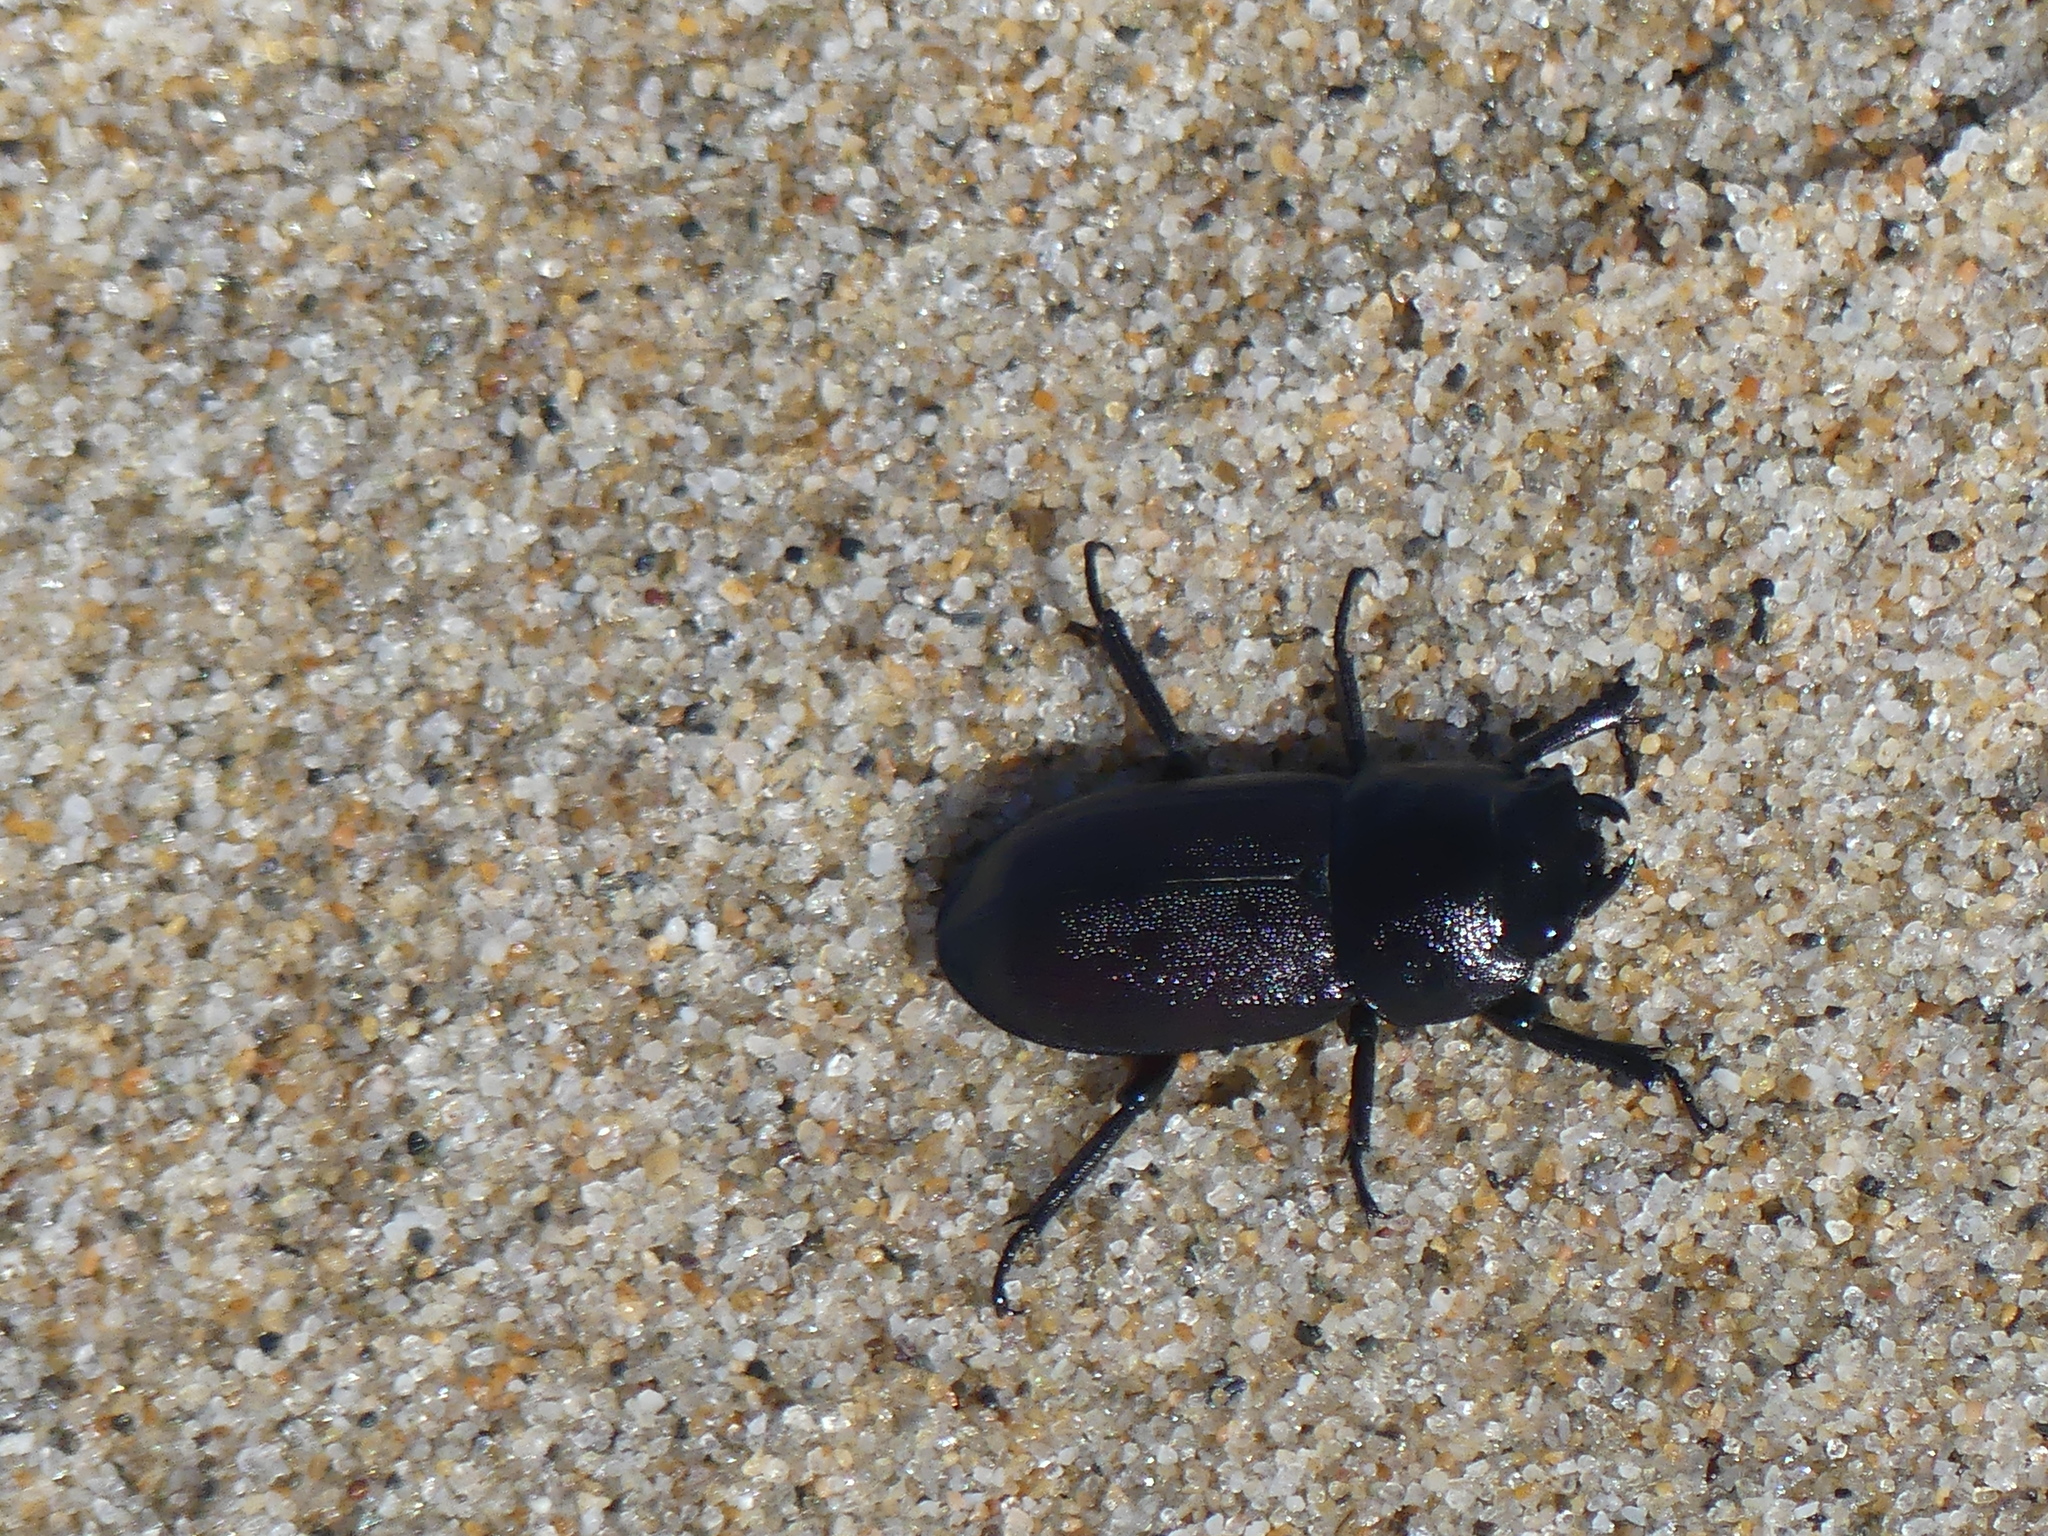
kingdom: Animalia
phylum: Arthropoda
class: Insecta
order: Coleoptera
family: Lucanidae
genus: Dorcus
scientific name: Dorcus parallelipipedus
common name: Lesser stag beetle
